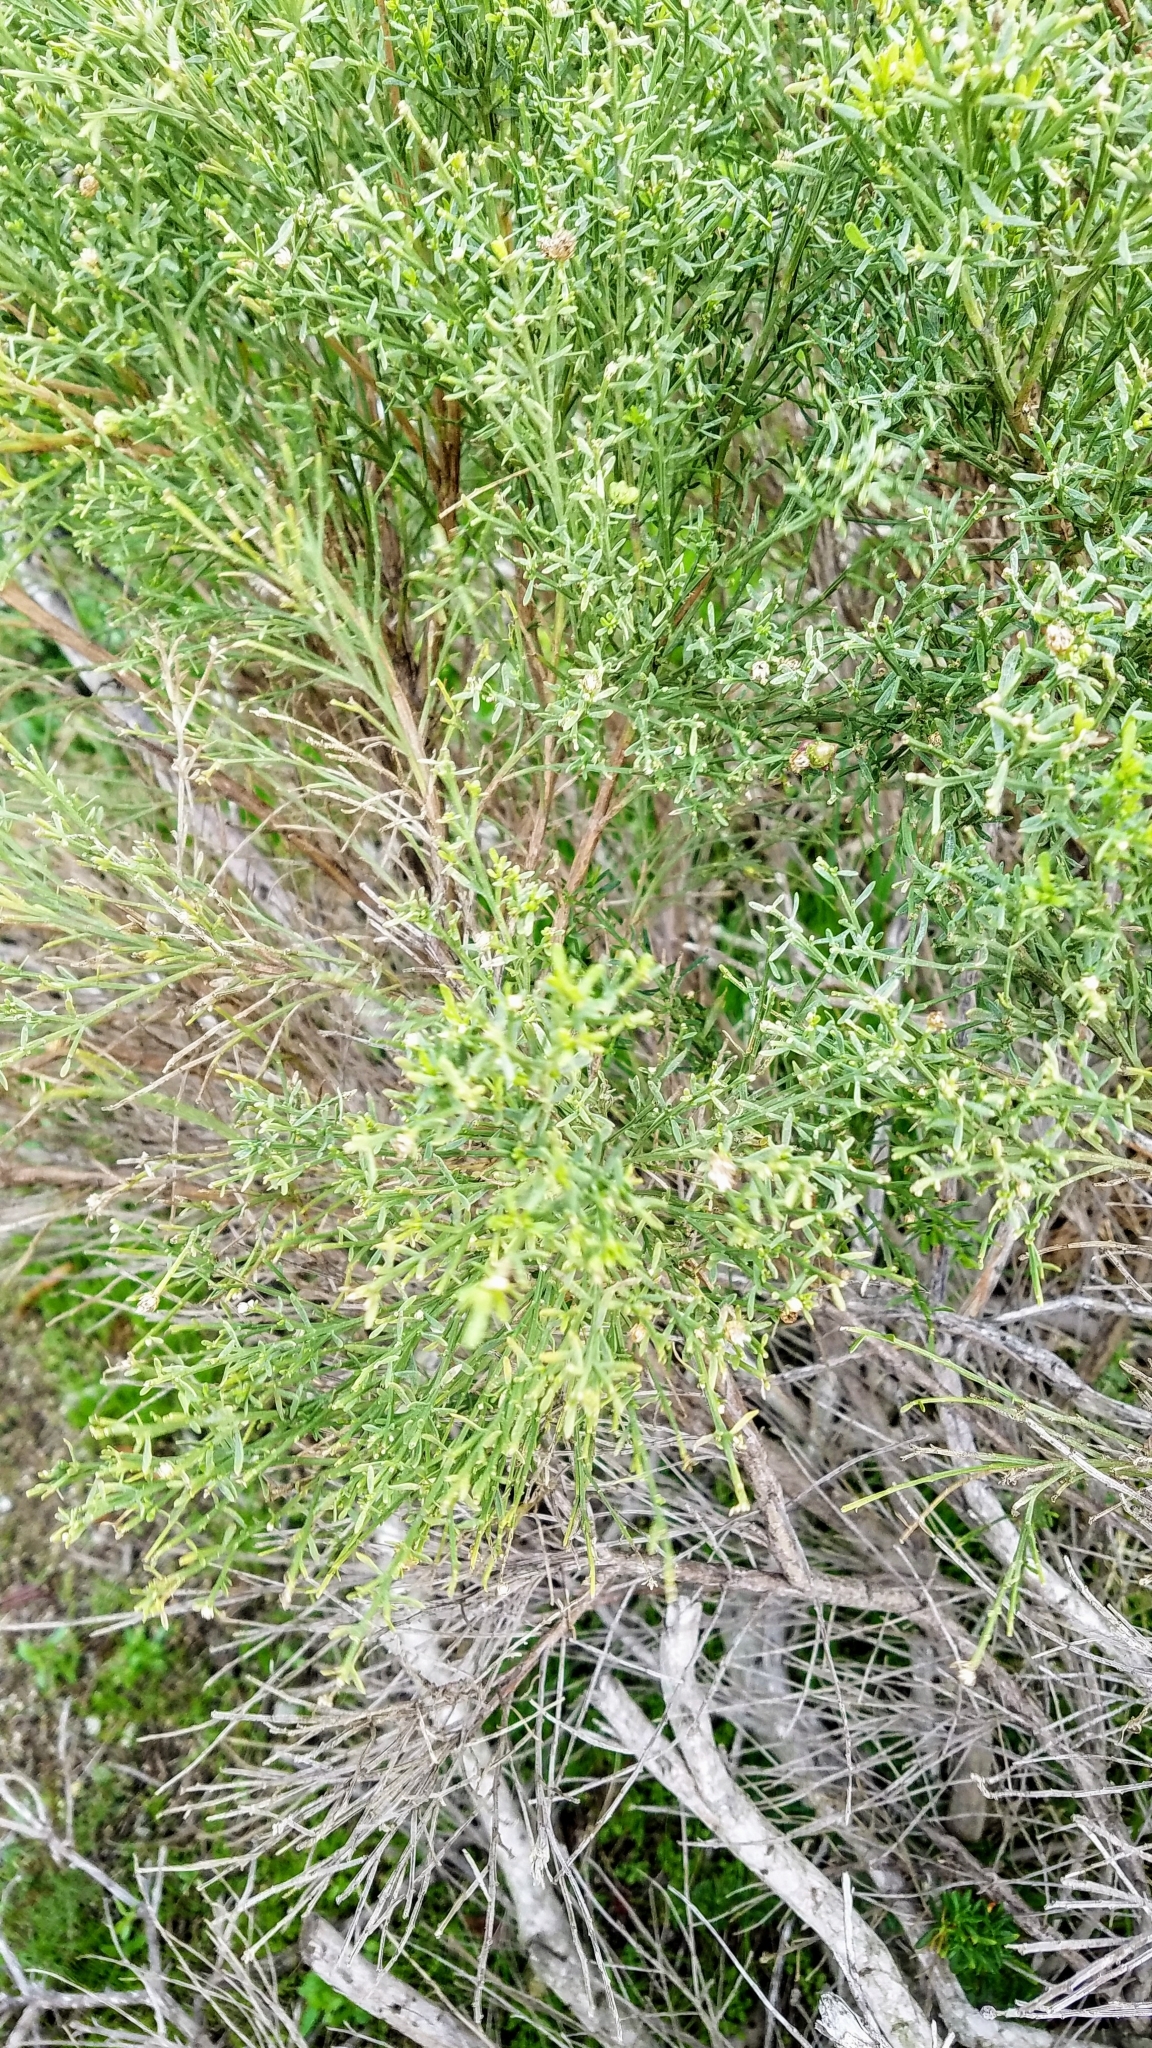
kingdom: Plantae
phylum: Tracheophyta
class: Magnoliopsida
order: Asterales
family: Asteraceae
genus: Baccharis
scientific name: Baccharis sarothroides
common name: Desert-broom
